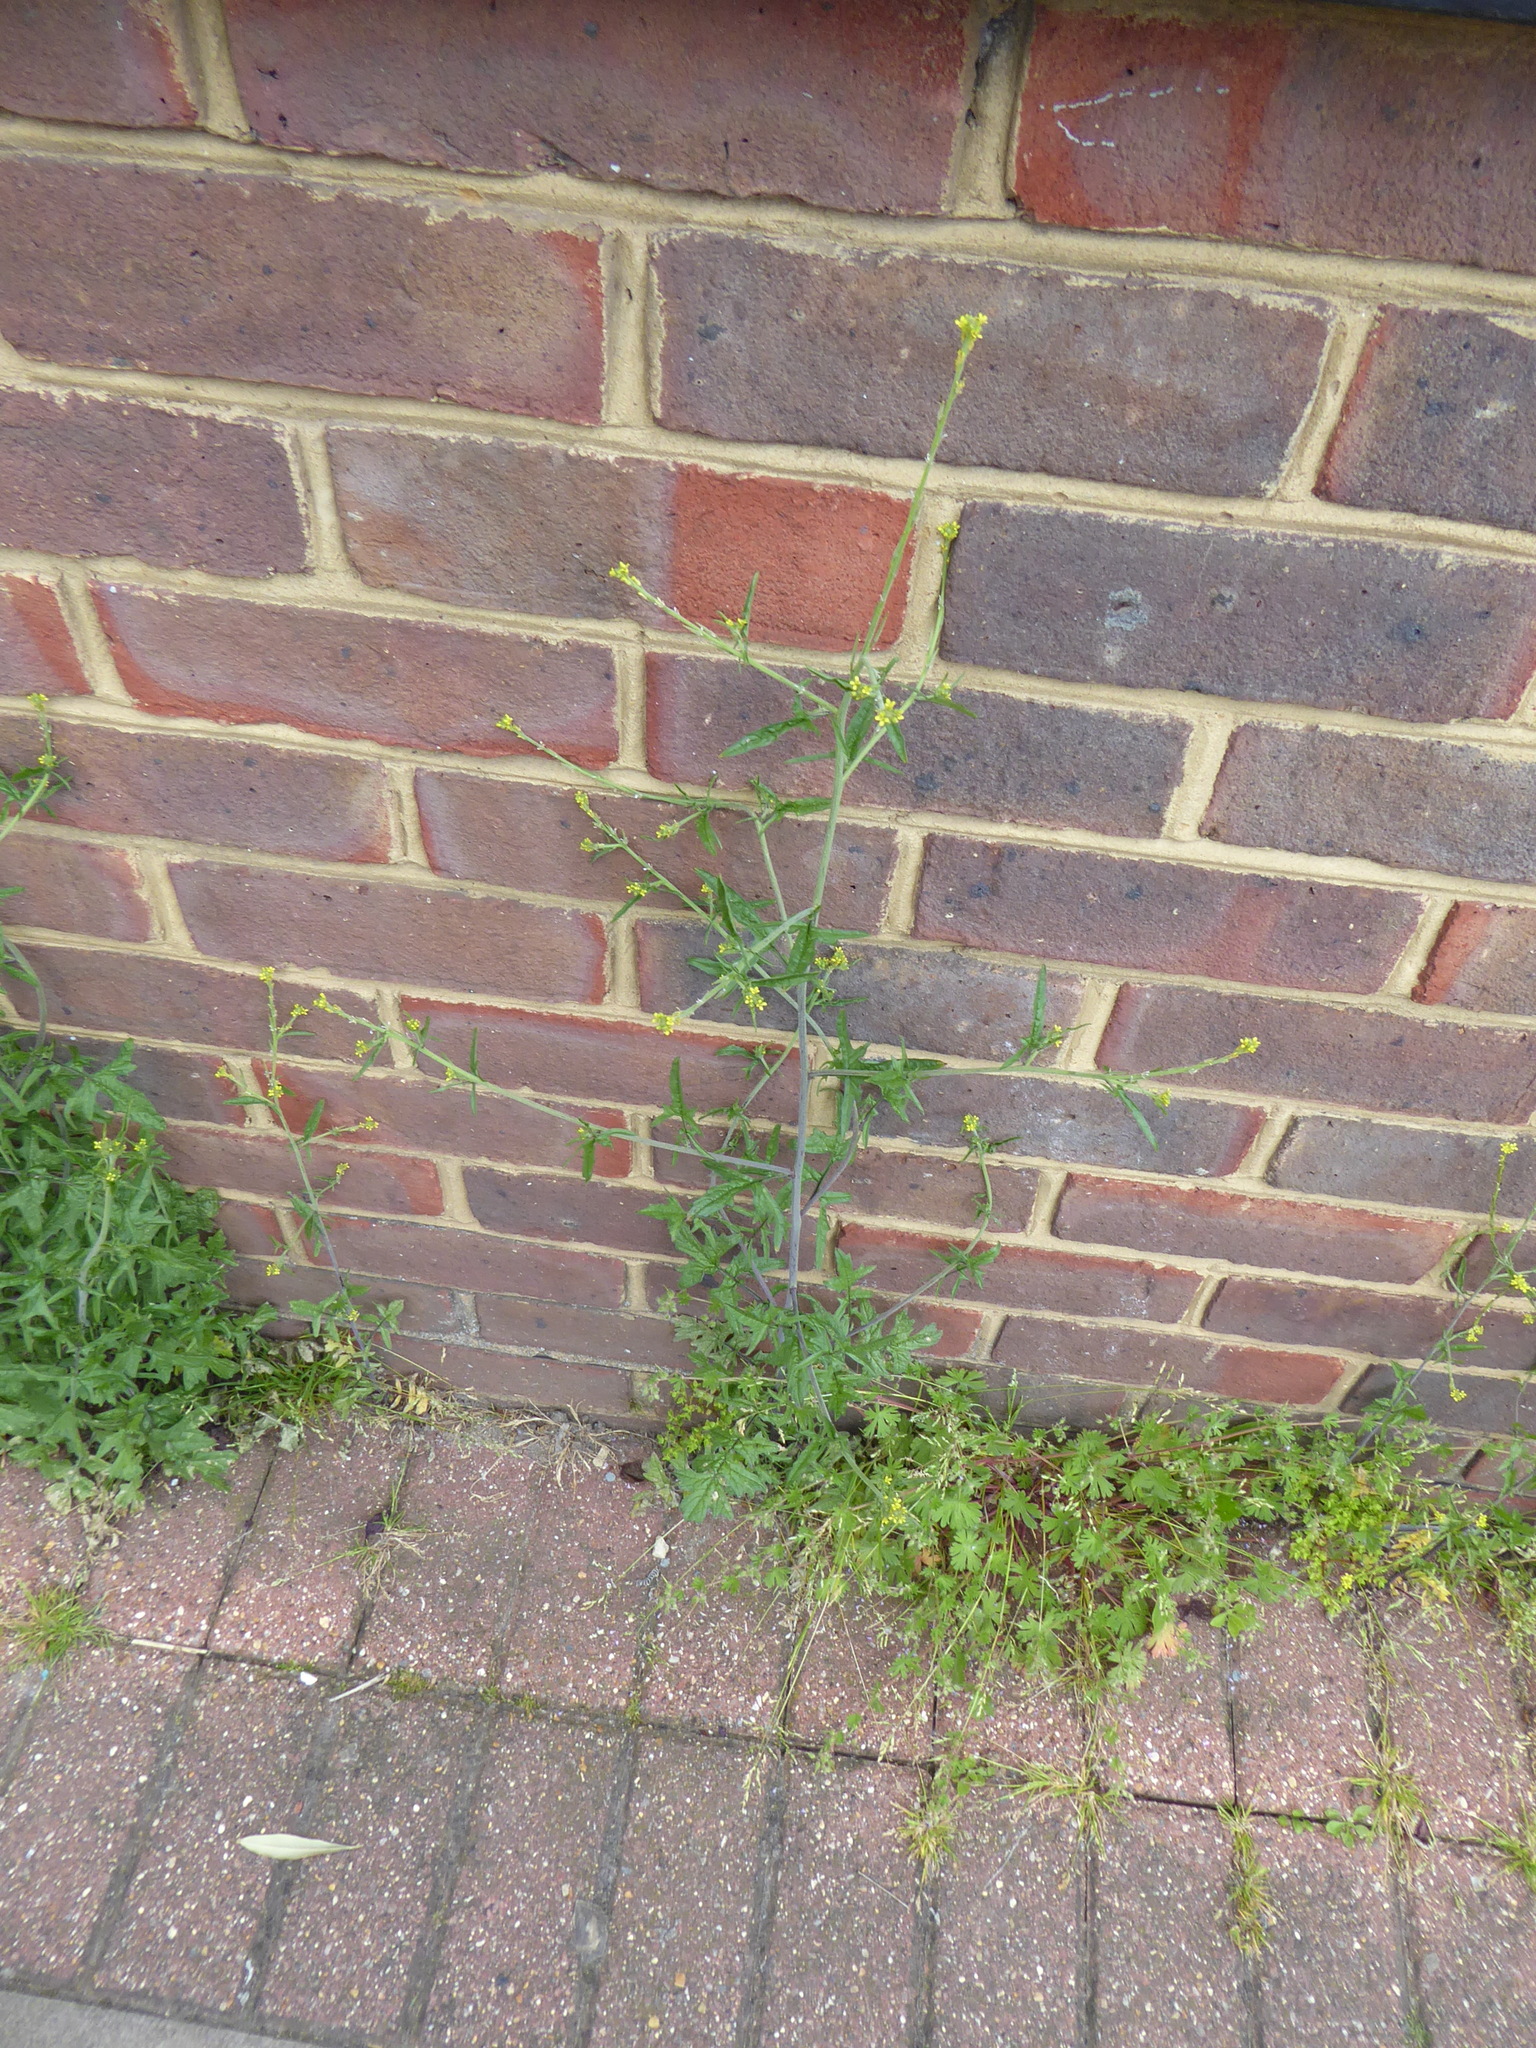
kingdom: Plantae
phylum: Tracheophyta
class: Magnoliopsida
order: Brassicales
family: Brassicaceae
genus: Sisymbrium
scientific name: Sisymbrium officinale
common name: Hedge mustard
